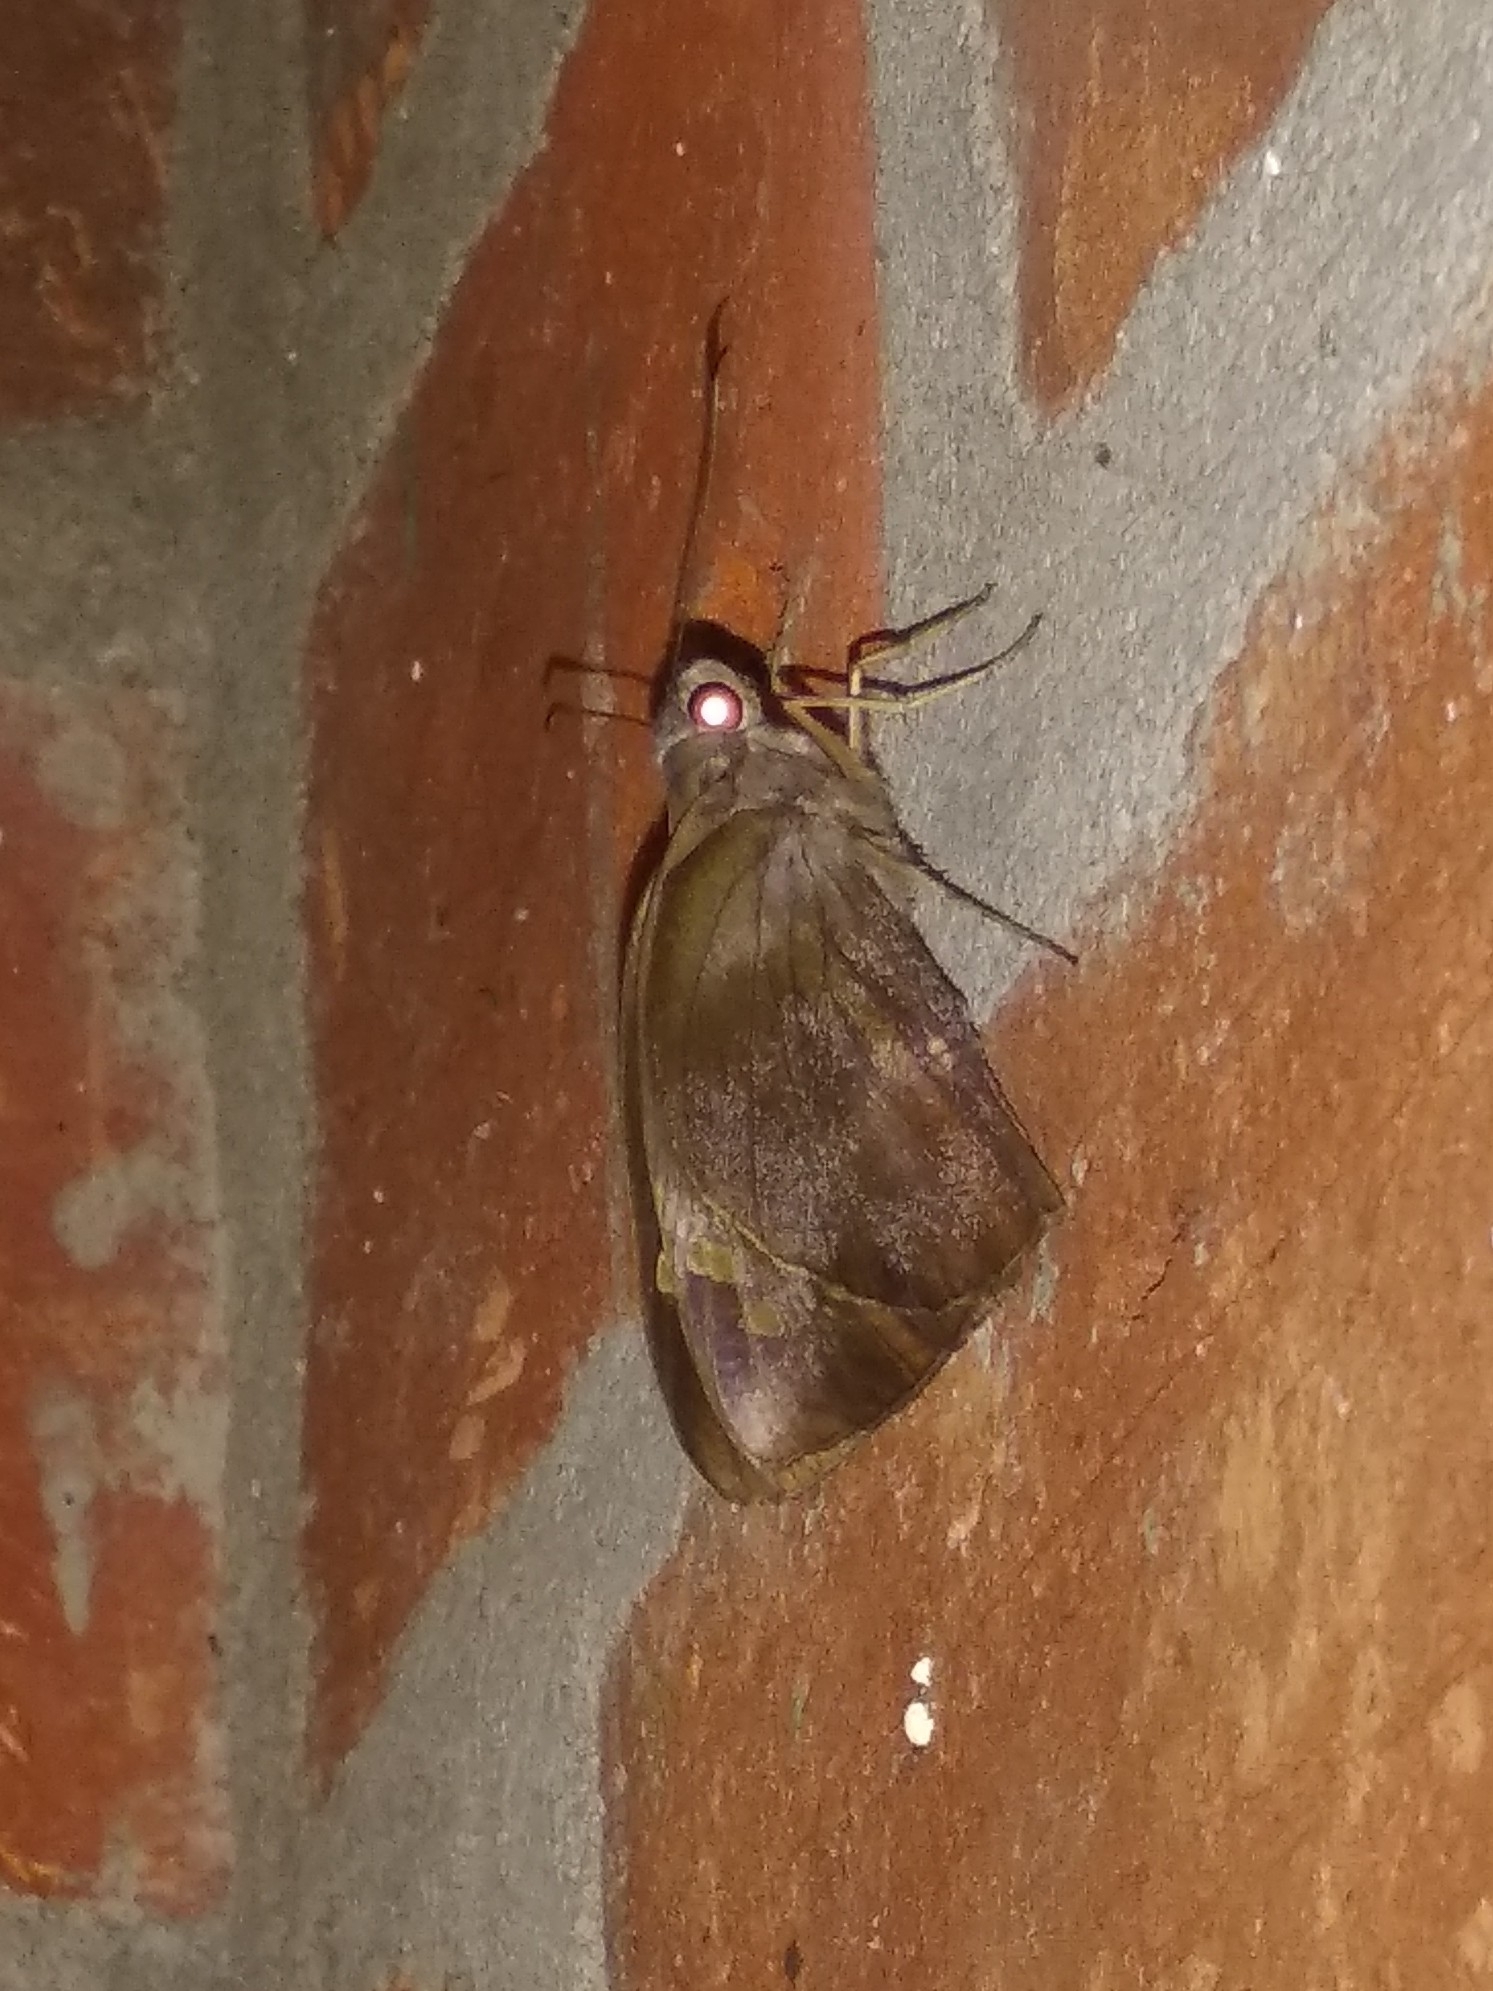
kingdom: Animalia
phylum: Arthropoda
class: Insecta
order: Lepidoptera
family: Hesperiidae
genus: Gangara
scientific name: Gangara thyrsis
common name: Giant redeye
